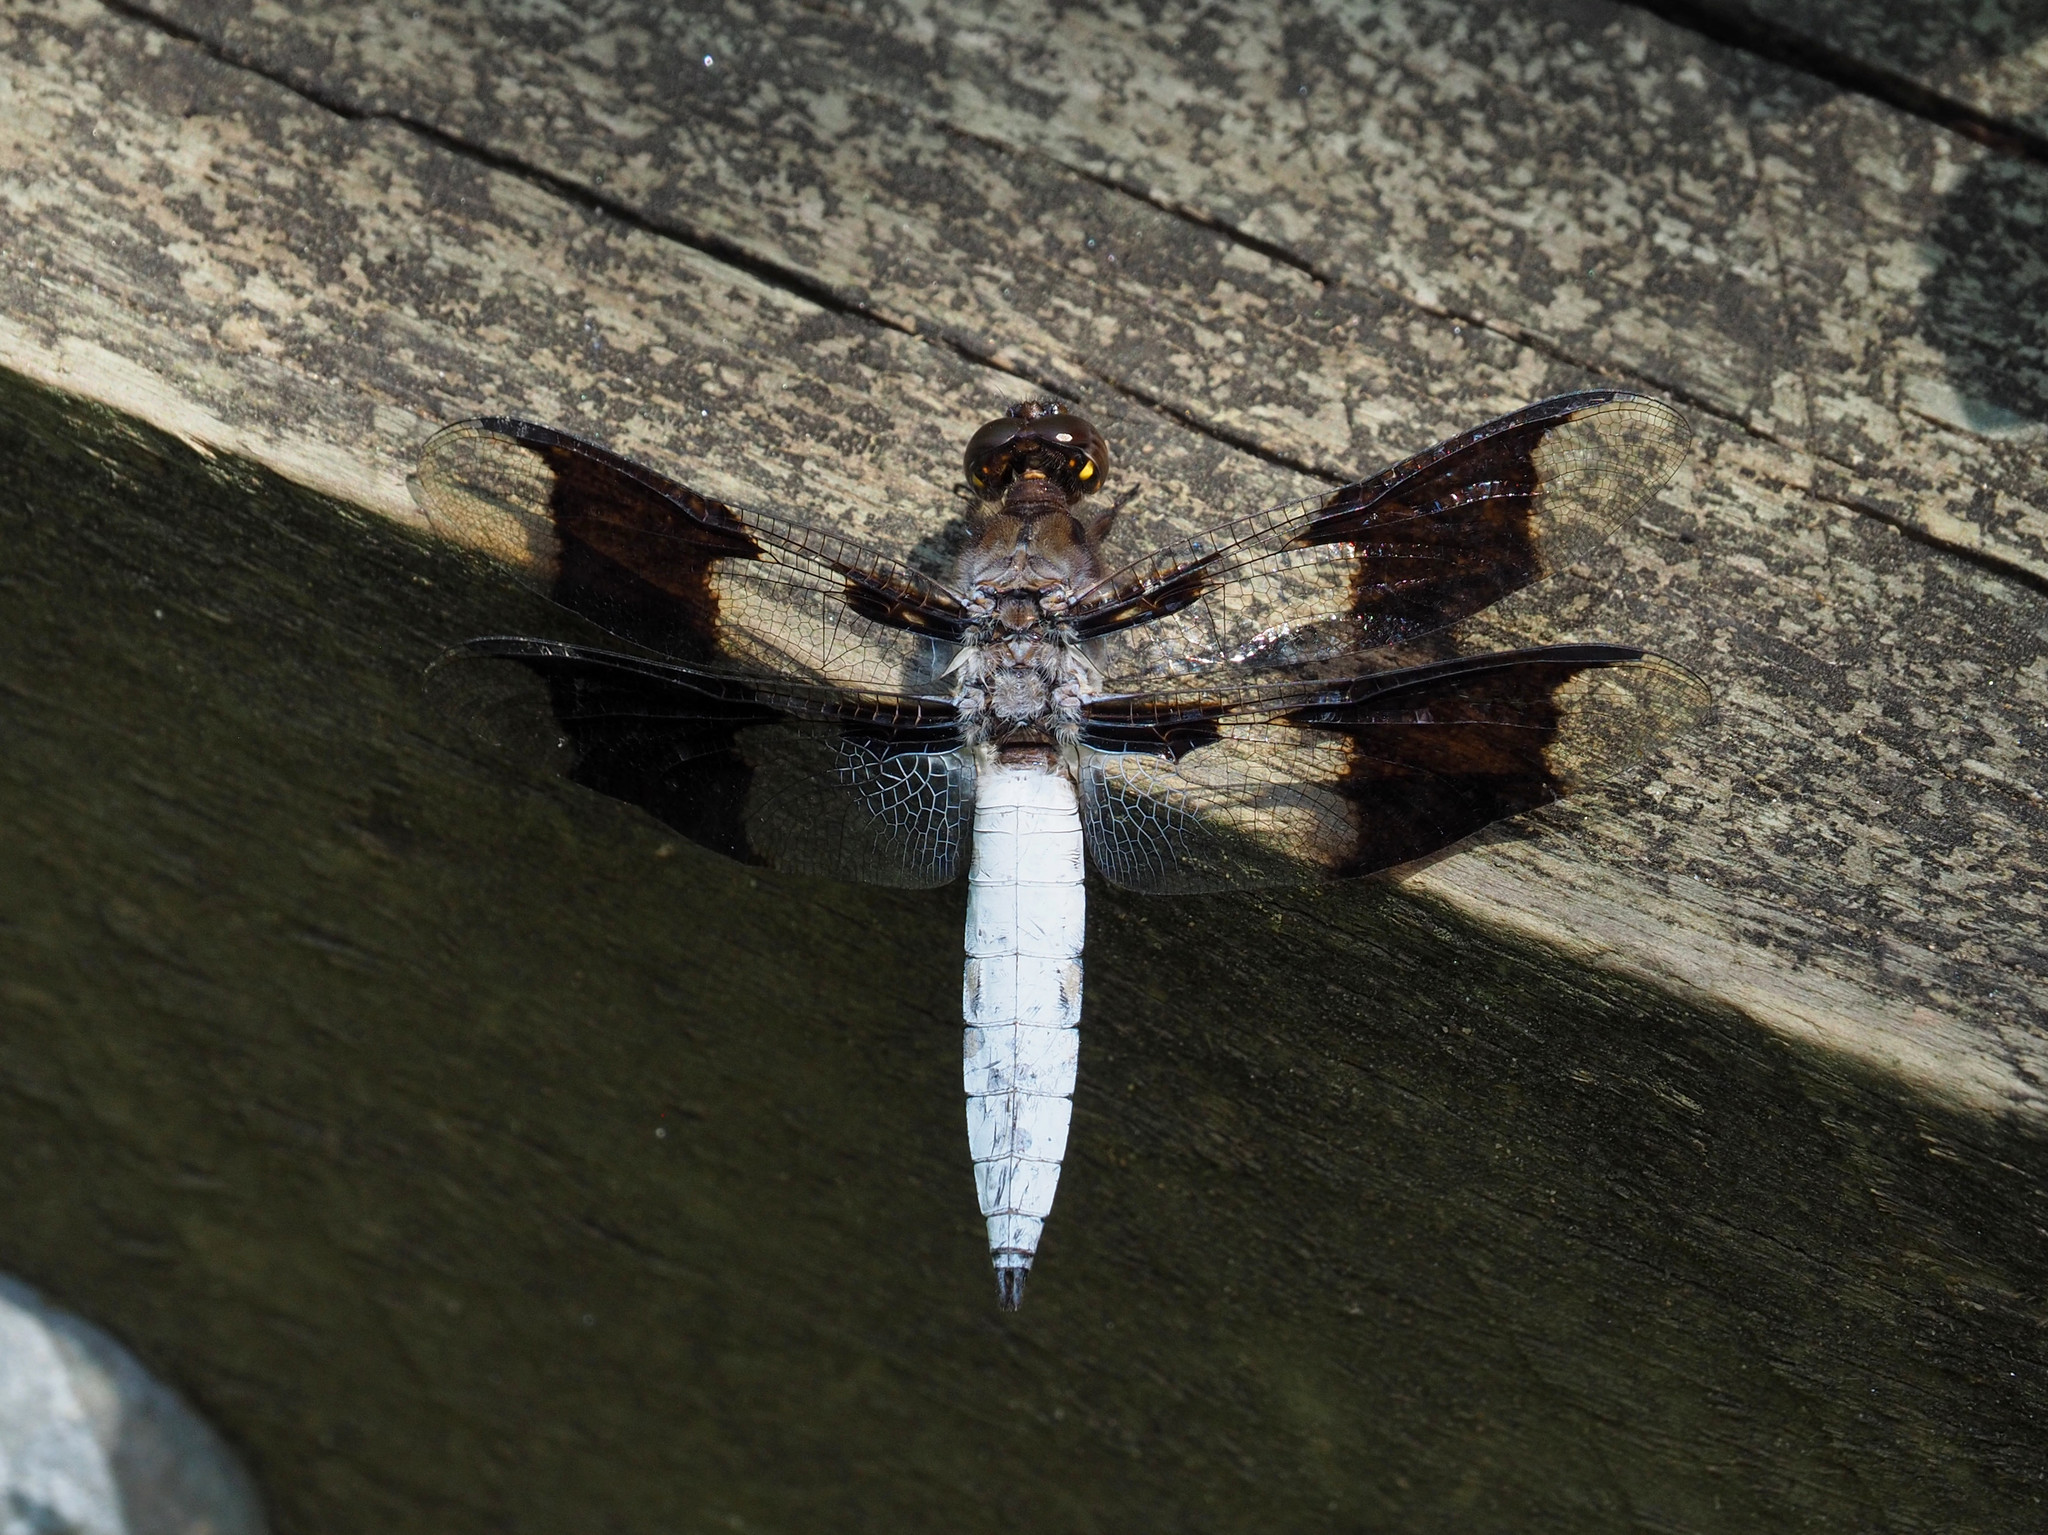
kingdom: Animalia
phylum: Arthropoda
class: Insecta
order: Odonata
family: Libellulidae
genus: Plathemis
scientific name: Plathemis lydia
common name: Common whitetail
